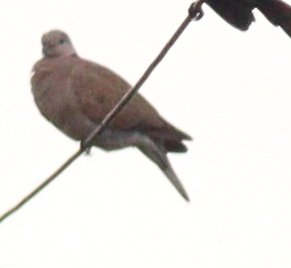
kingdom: Animalia
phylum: Chordata
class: Aves
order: Columbiformes
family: Columbidae
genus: Streptopelia
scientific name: Streptopelia tranquebarica
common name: Red turtle dove
